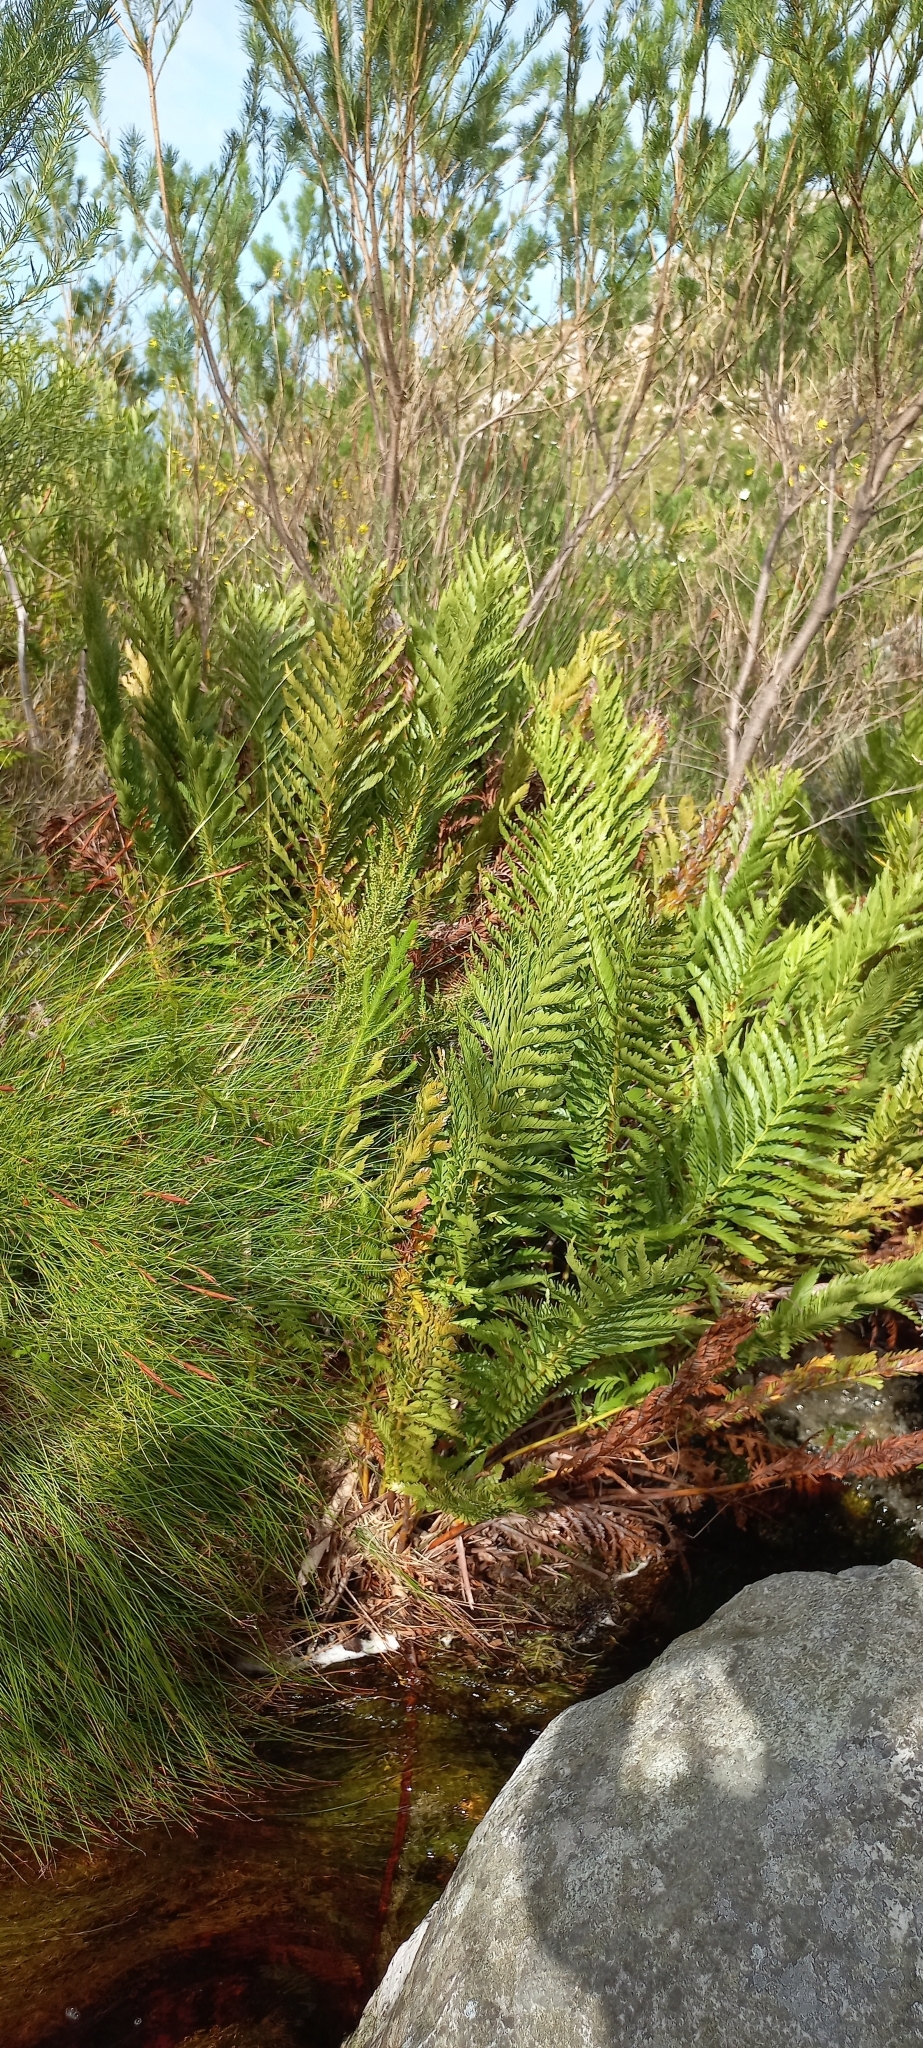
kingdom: Plantae
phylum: Tracheophyta
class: Polypodiopsida
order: Osmundales
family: Osmundaceae
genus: Todea
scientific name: Todea barbara
